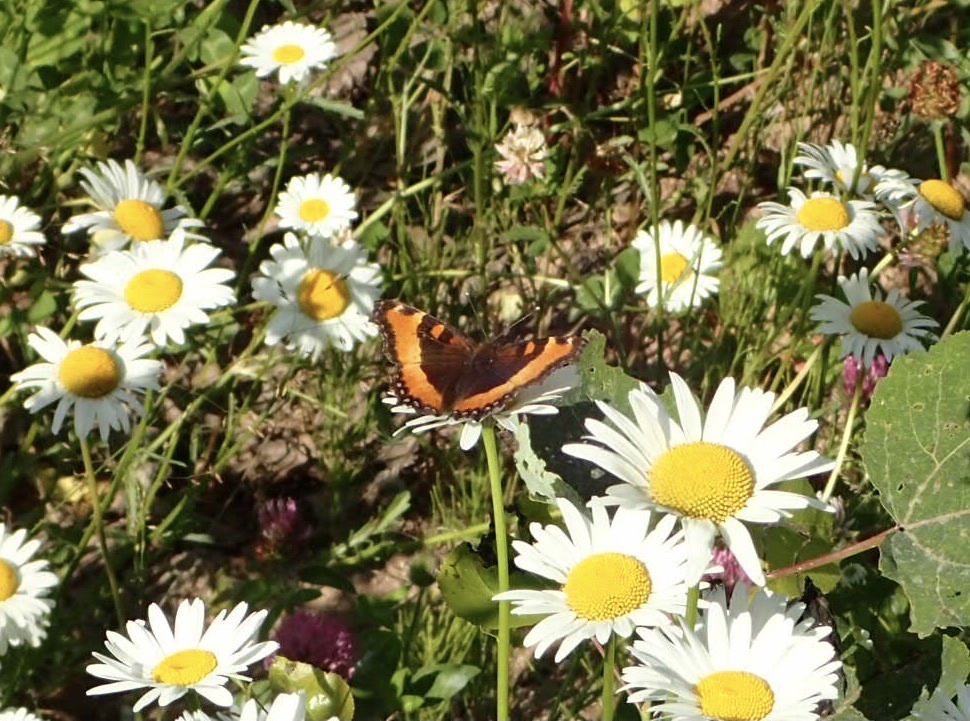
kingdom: Animalia
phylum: Arthropoda
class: Insecta
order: Lepidoptera
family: Nymphalidae
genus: Aglais
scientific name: Aglais milberti
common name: Milbert's tortoiseshell
